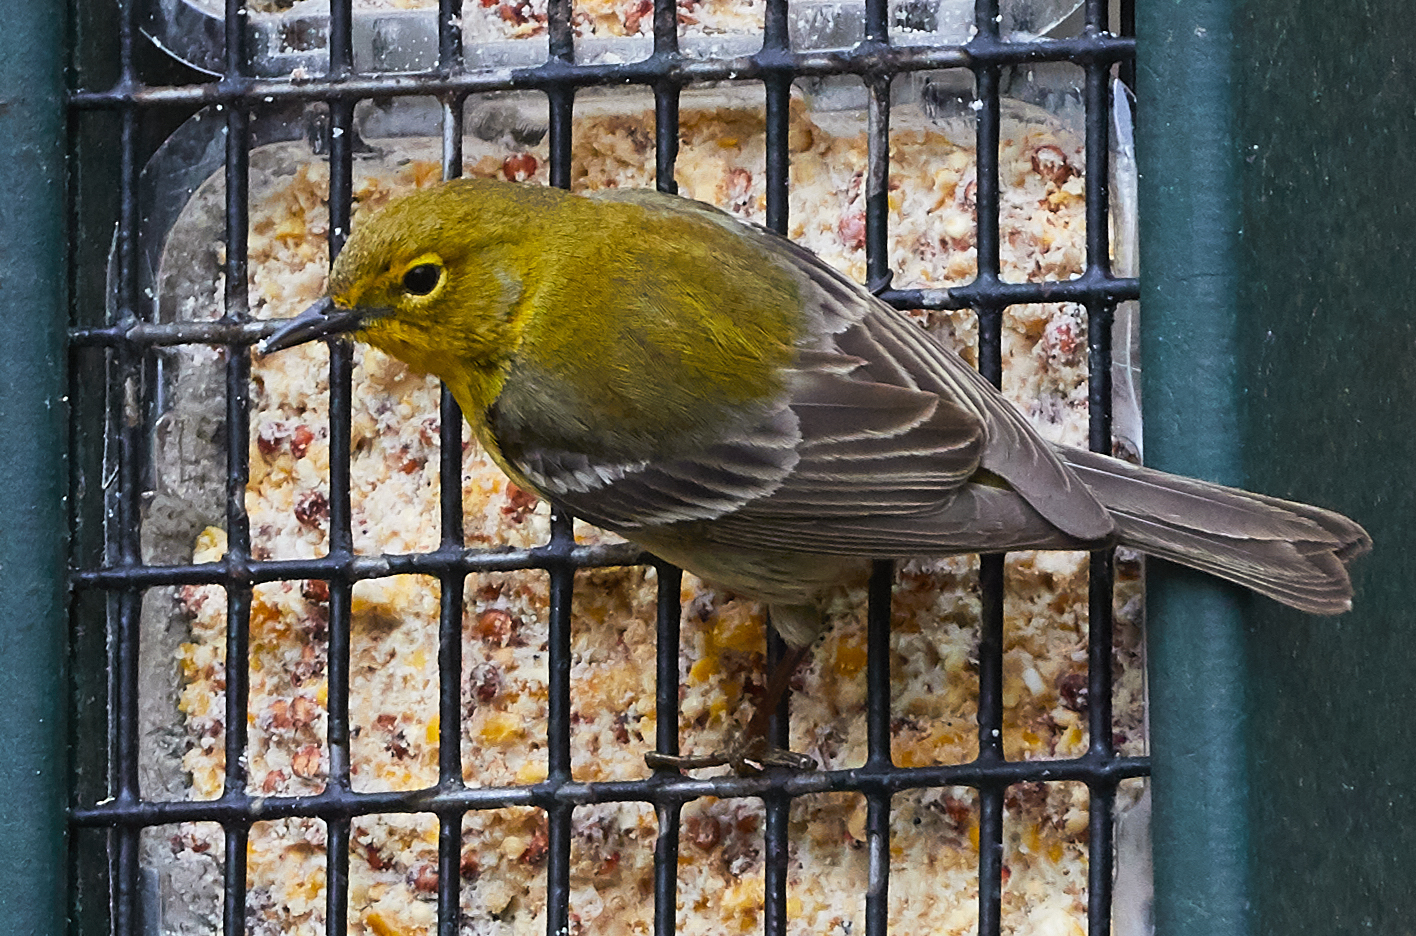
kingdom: Animalia
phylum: Chordata
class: Aves
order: Passeriformes
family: Parulidae
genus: Setophaga
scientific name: Setophaga pinus
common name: Pine warbler
